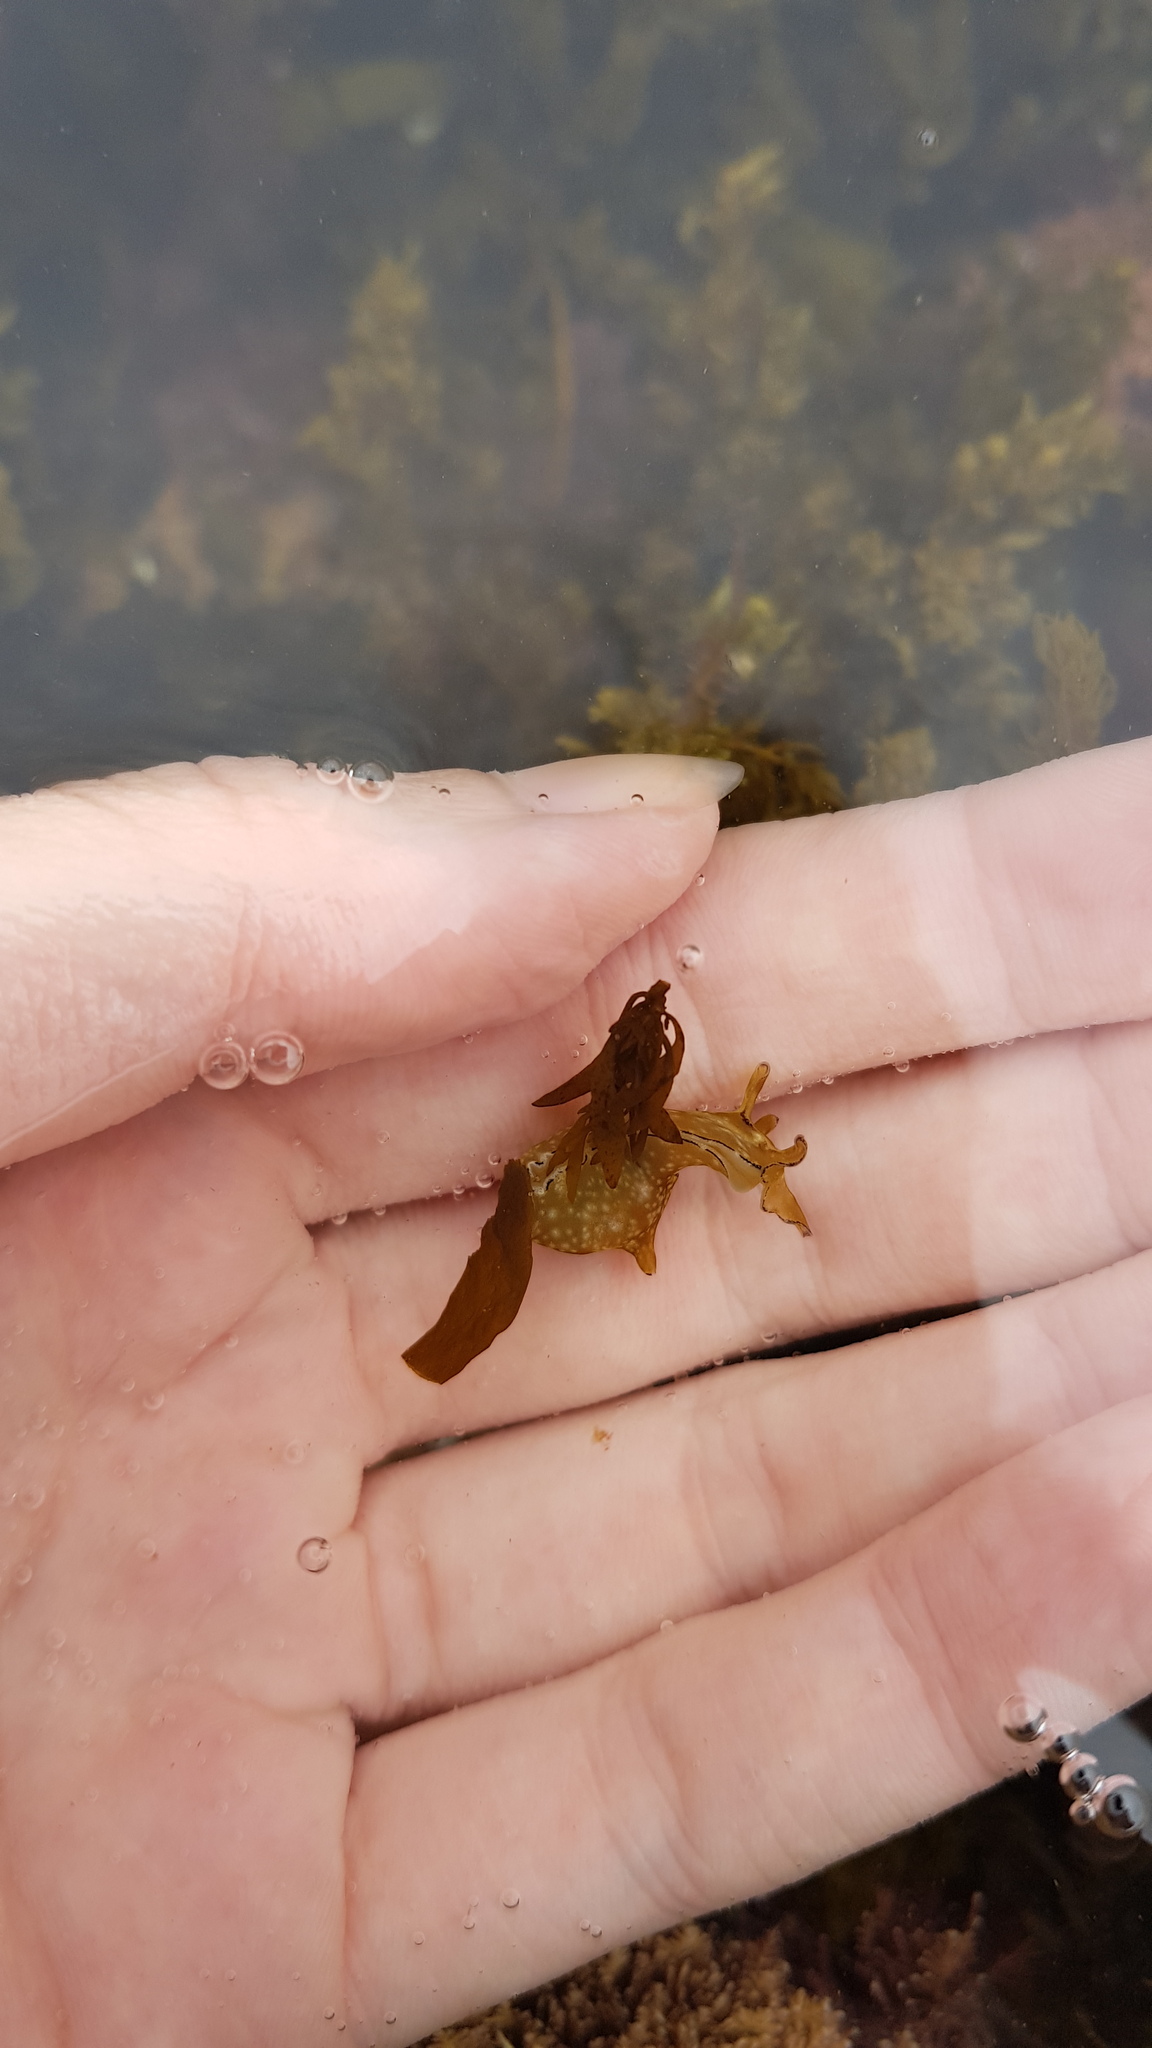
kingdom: Animalia
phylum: Mollusca
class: Gastropoda
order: Aplysiida
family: Aplysiidae
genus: Aplysia
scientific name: Aplysia concava
